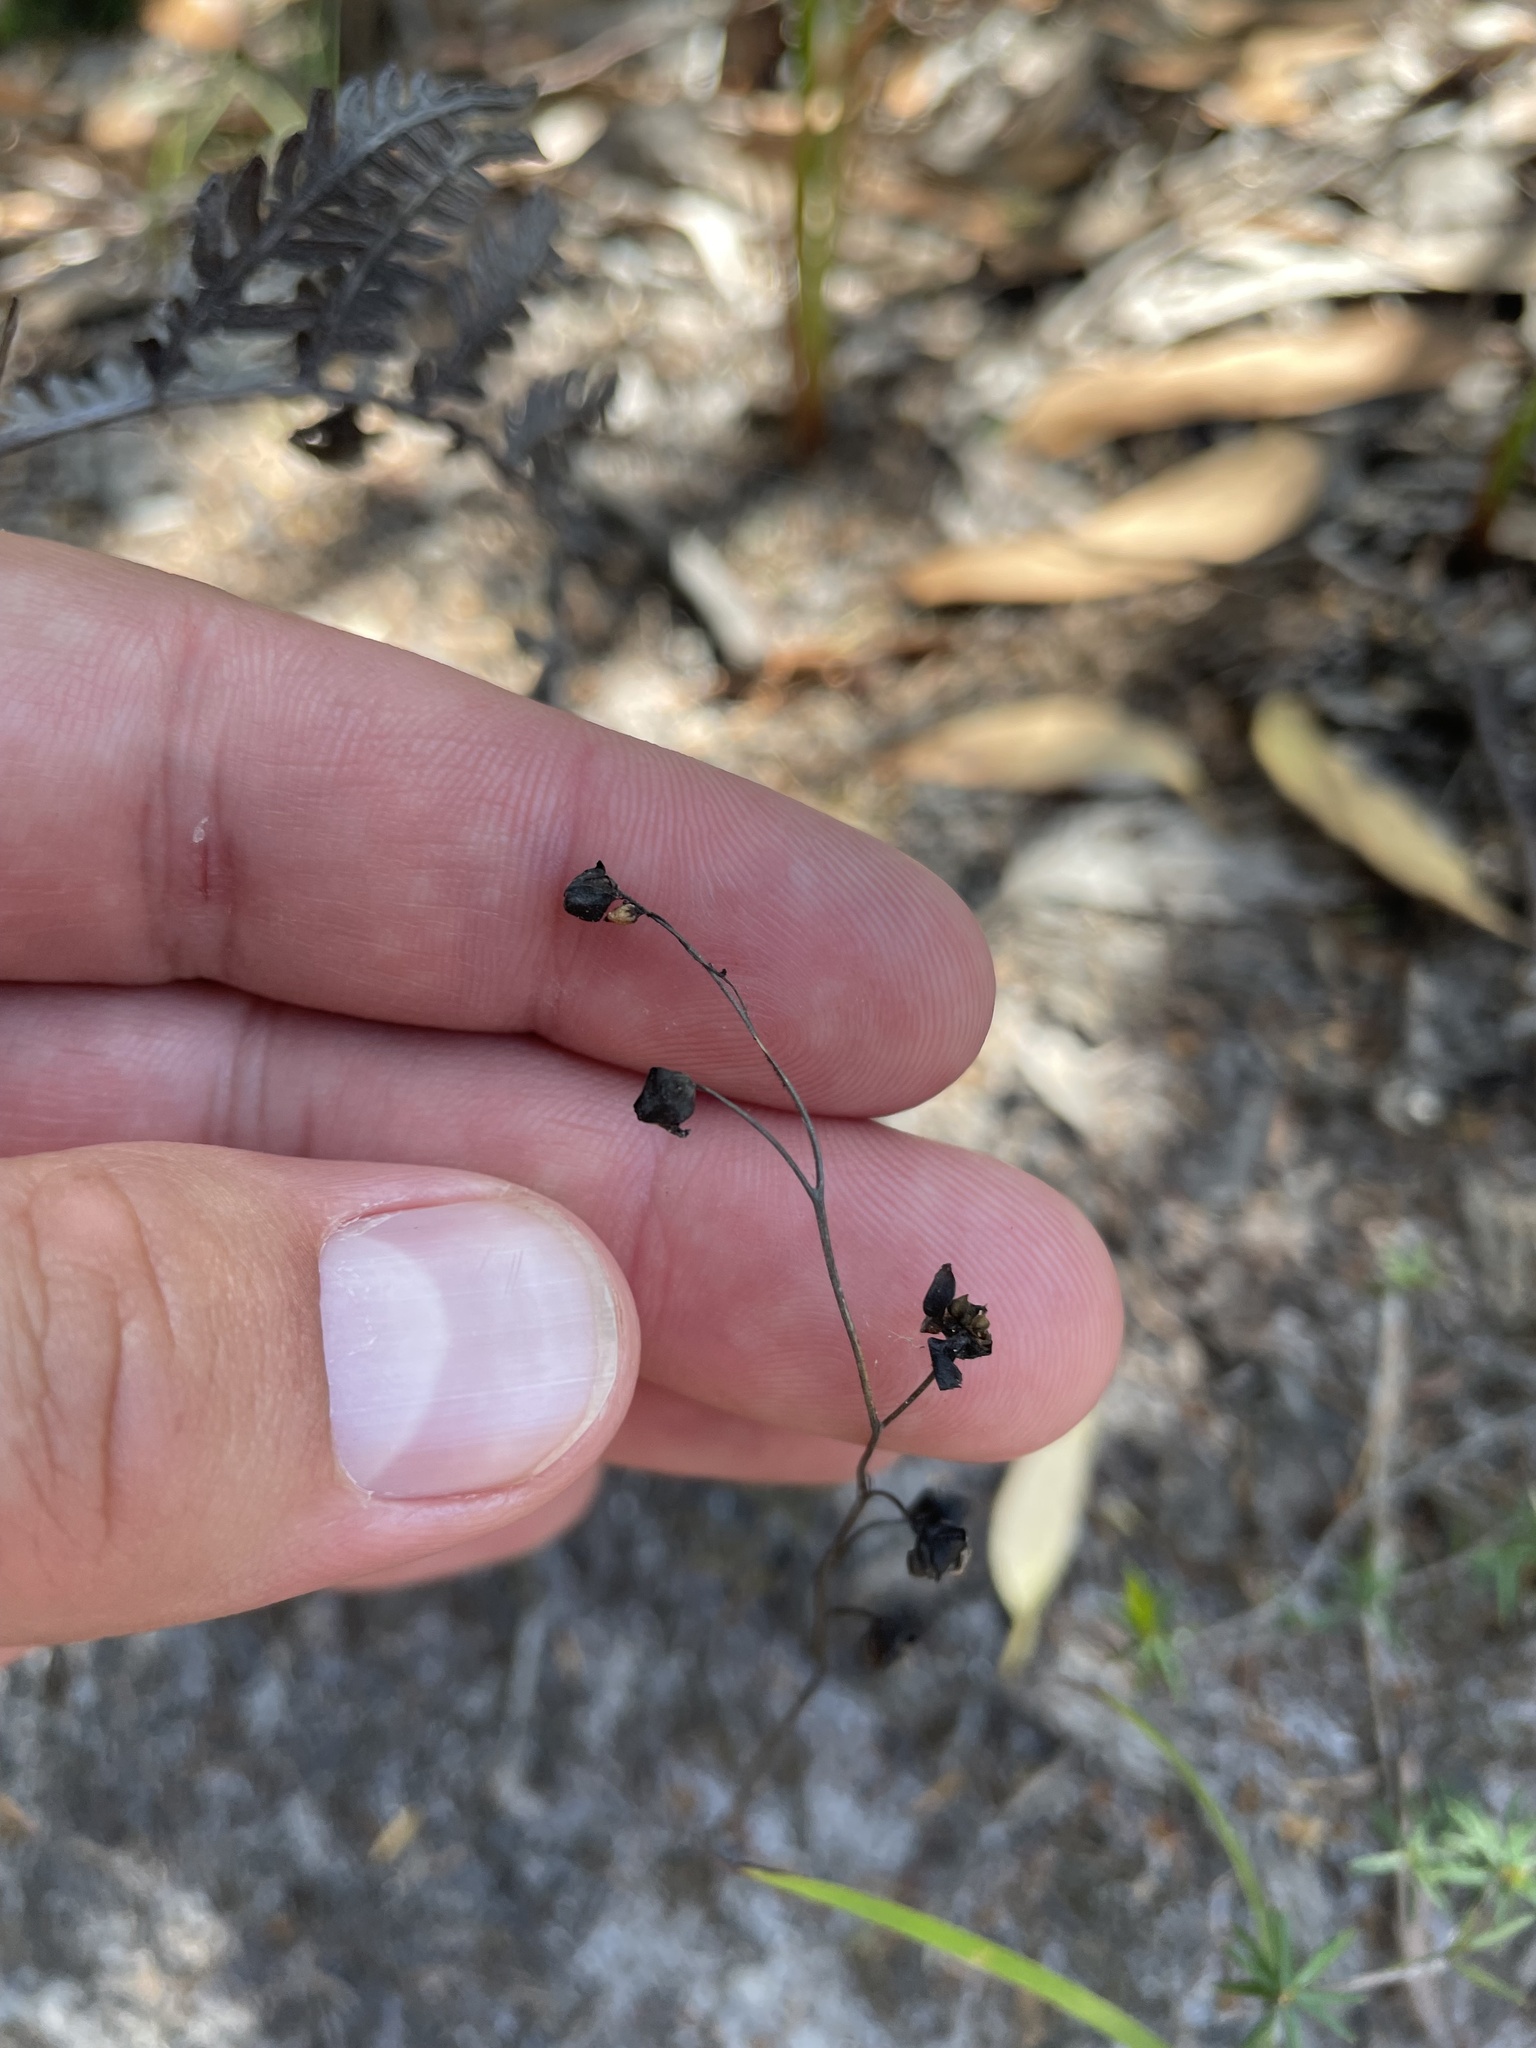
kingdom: Plantae
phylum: Tracheophyta
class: Magnoliopsida
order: Caryophyllales
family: Droseraceae
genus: Drosera
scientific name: Drosera peltata
